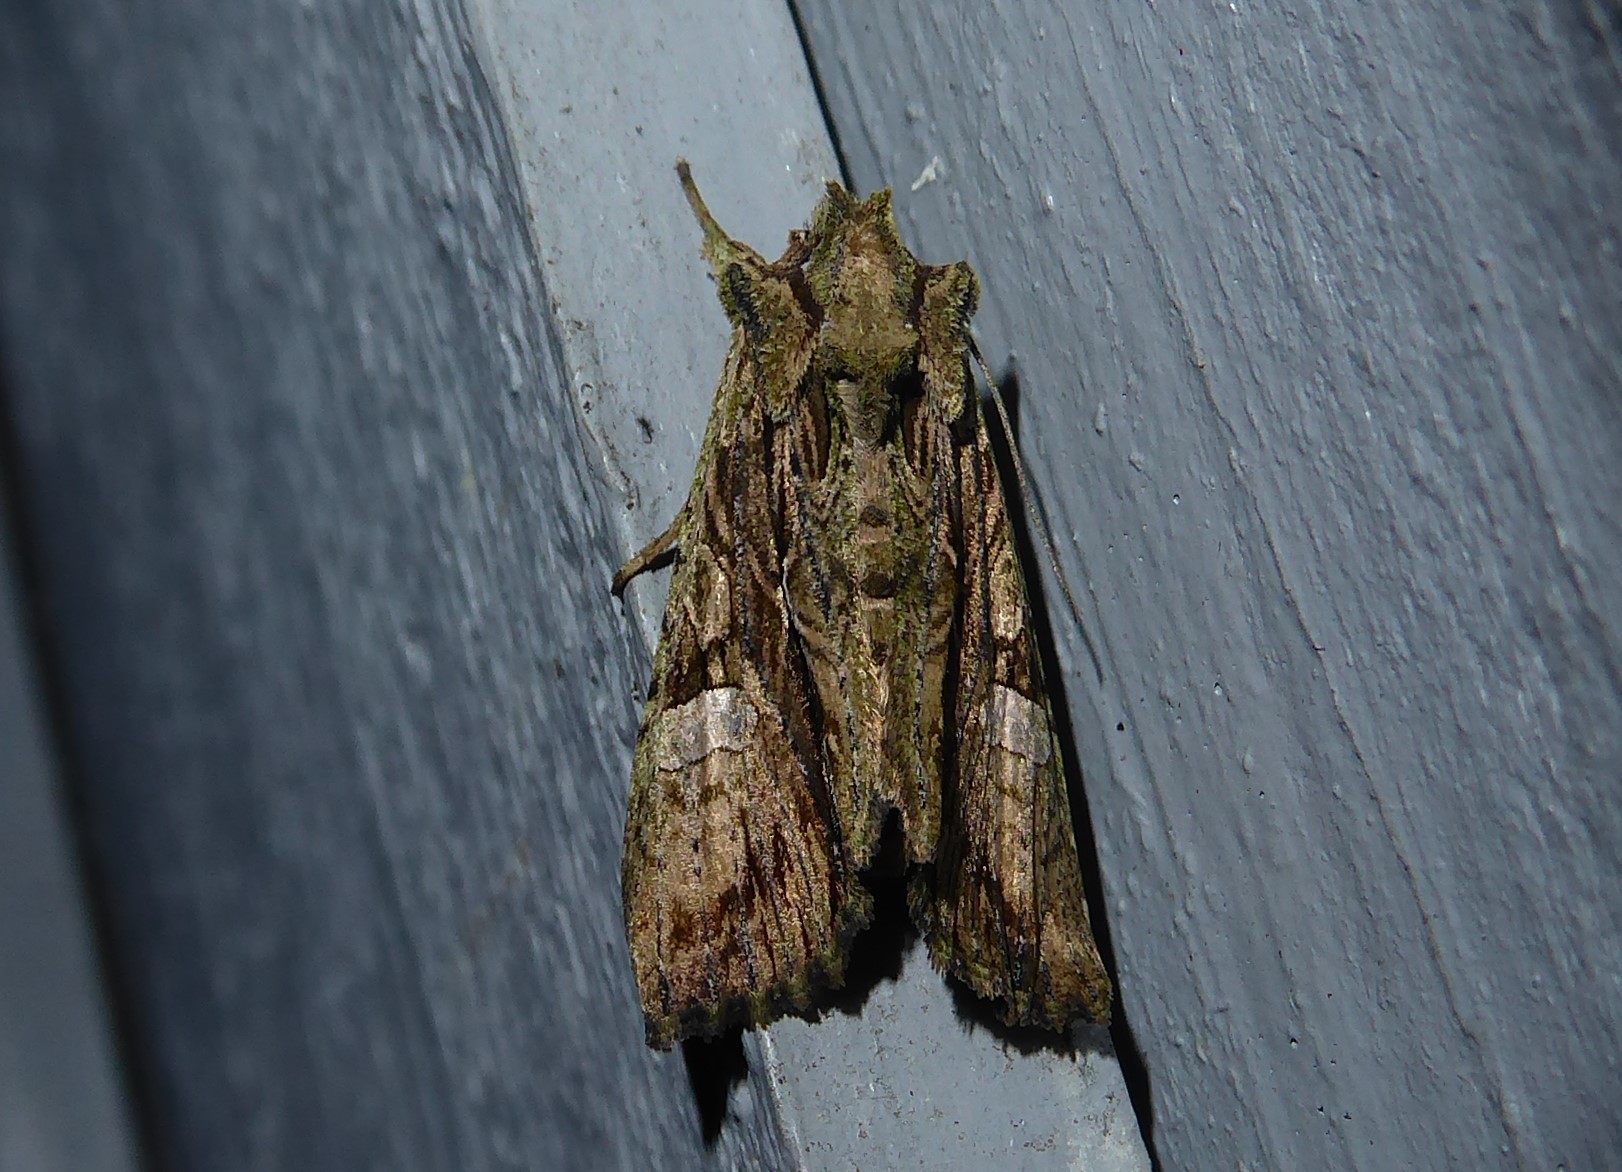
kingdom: Animalia
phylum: Arthropoda
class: Insecta
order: Lepidoptera
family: Noctuidae
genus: Meterana
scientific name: Meterana decorata
